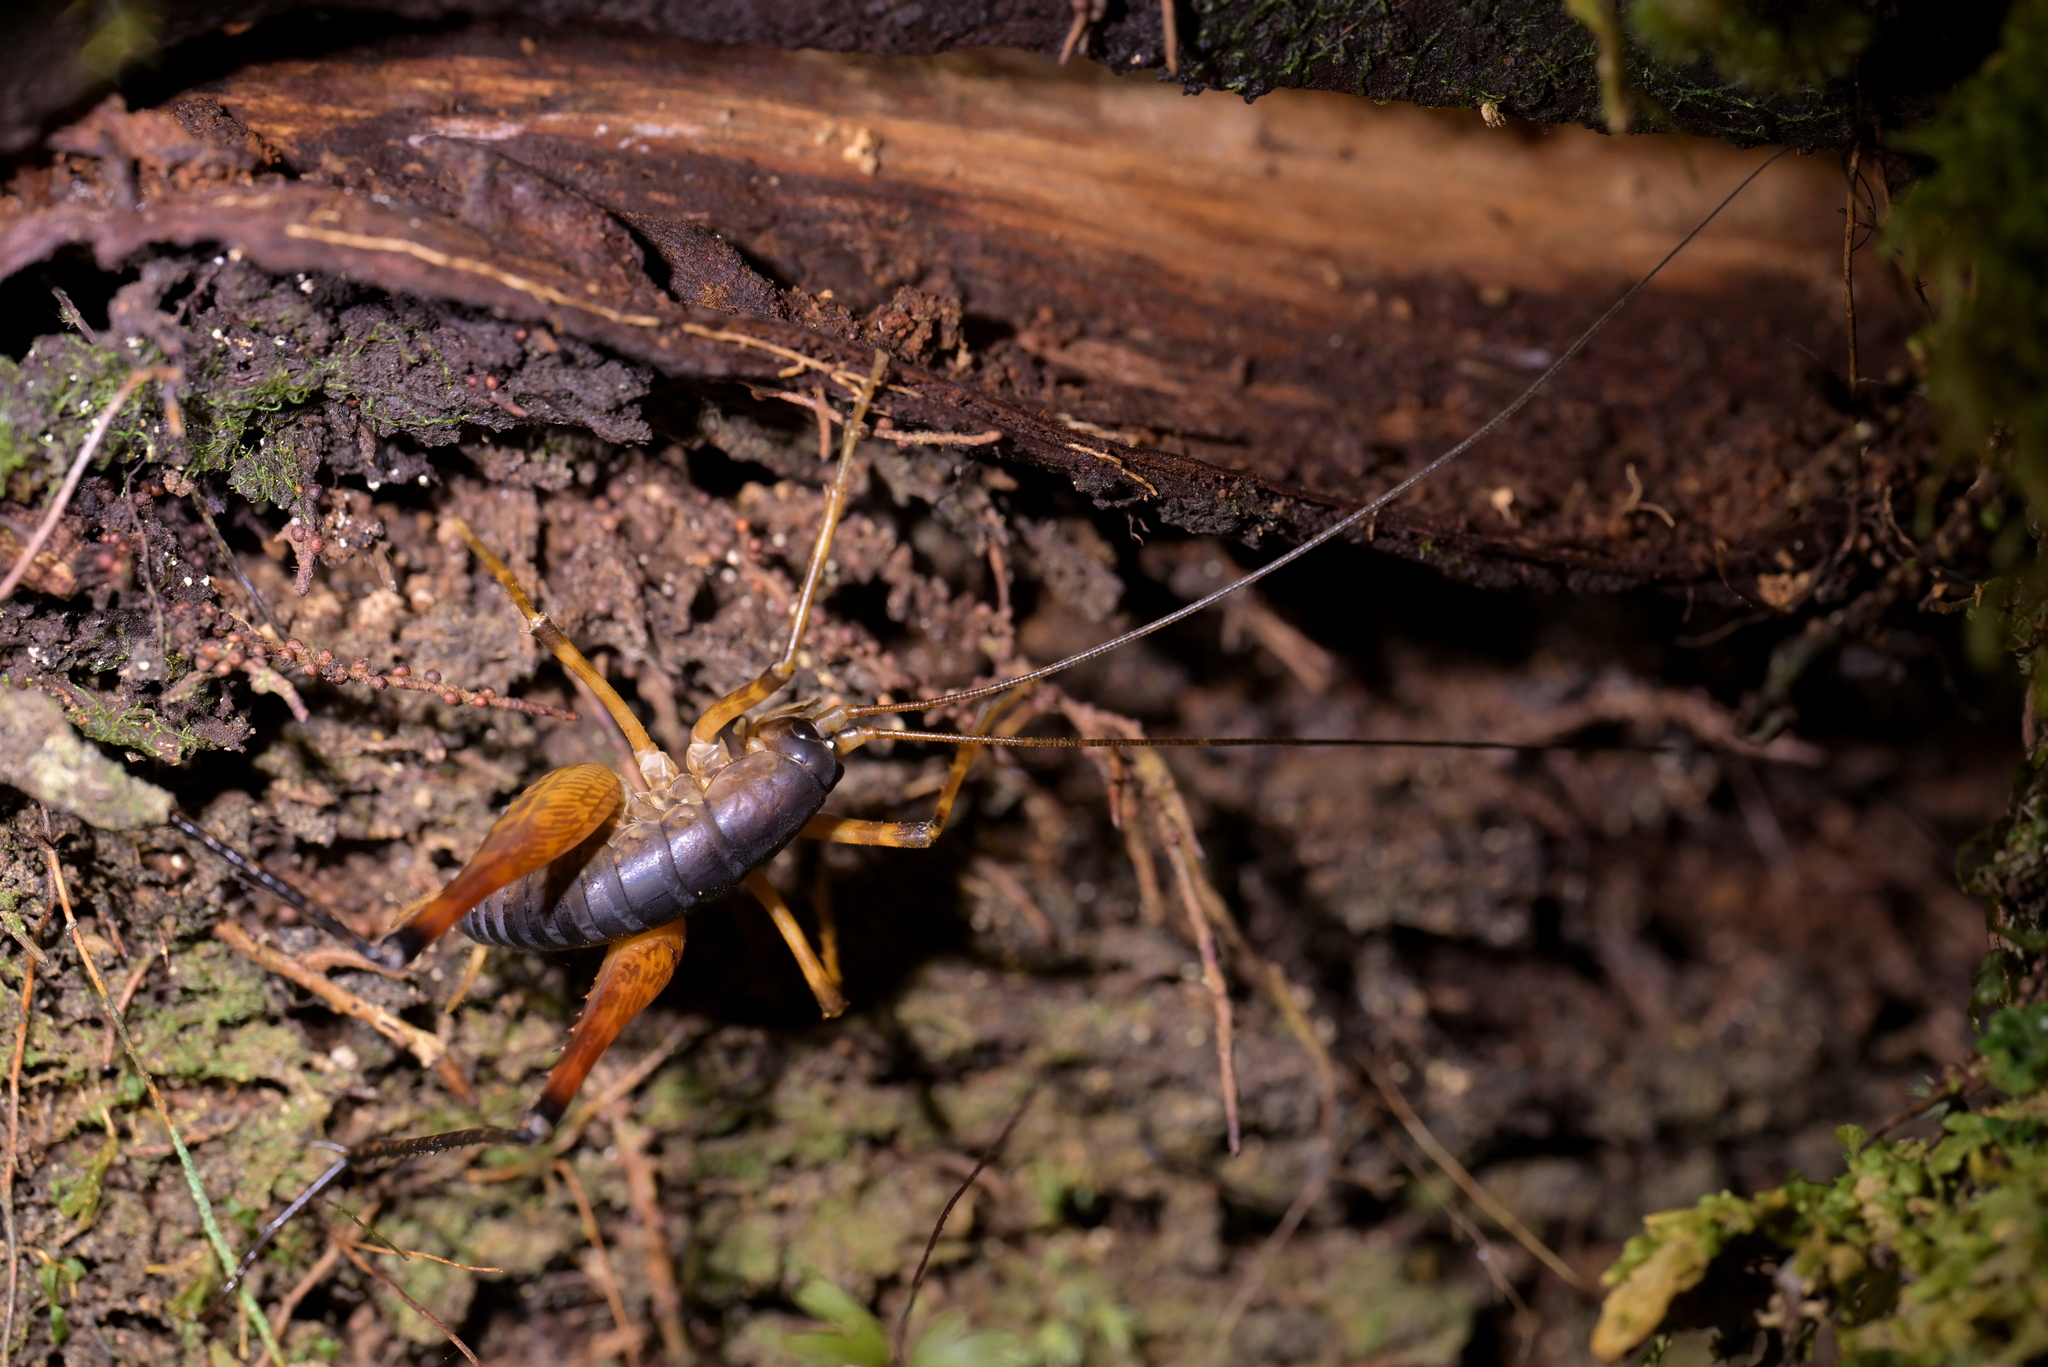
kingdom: Animalia
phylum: Arthropoda
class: Insecta
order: Orthoptera
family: Rhaphidophoridae
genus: Pachyrhamma
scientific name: Pachyrhamma longicauda
